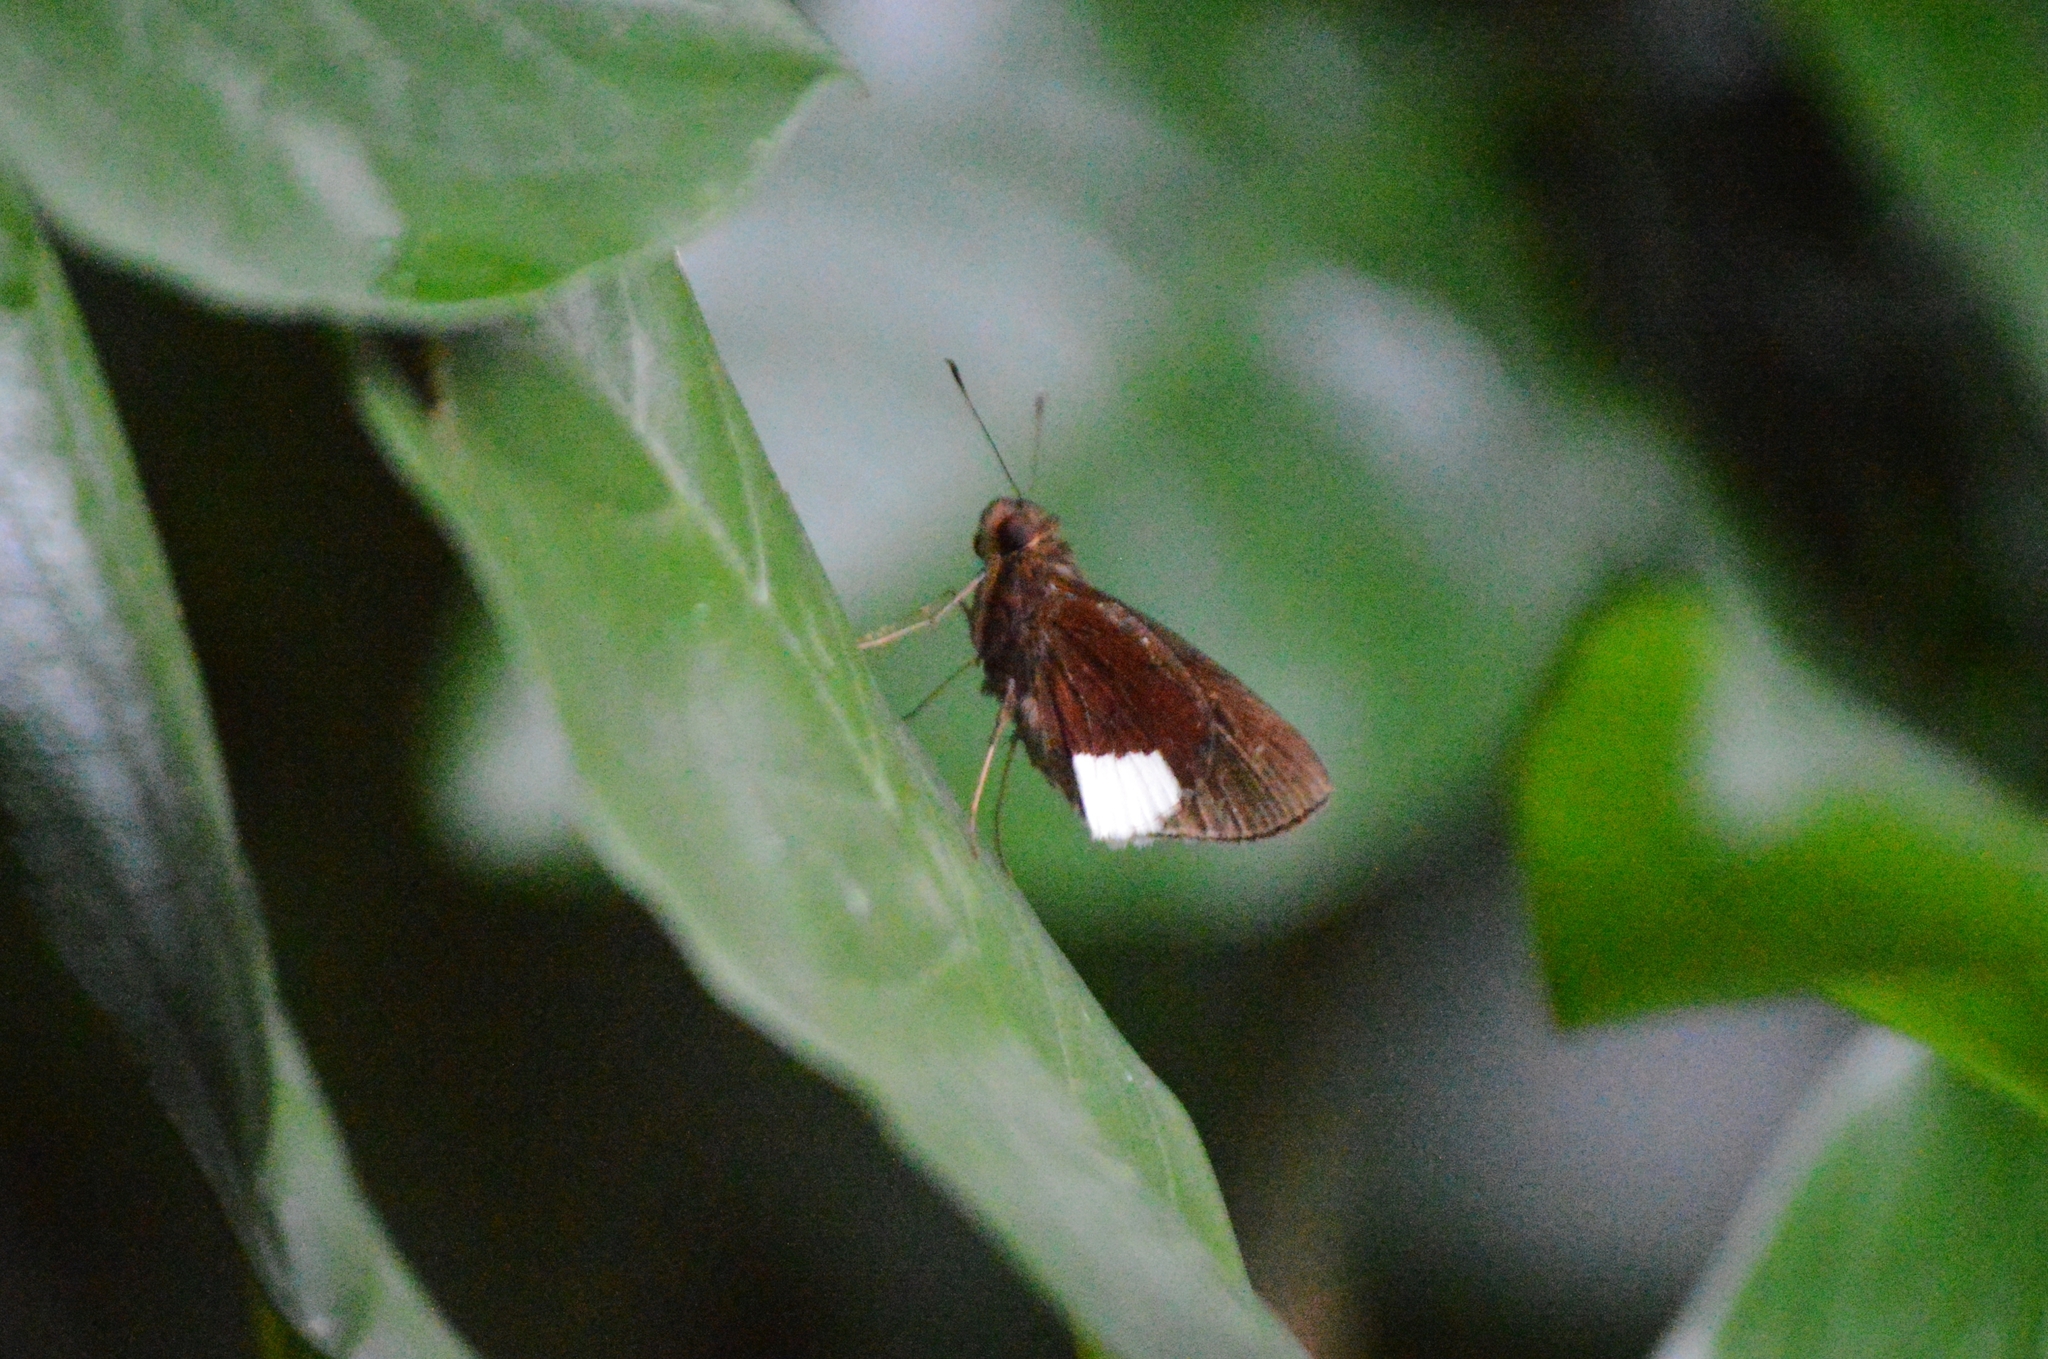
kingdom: Animalia
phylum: Arthropoda
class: Insecta
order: Lepidoptera
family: Hesperiidae
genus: Cobalus
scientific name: Cobalus virbius
